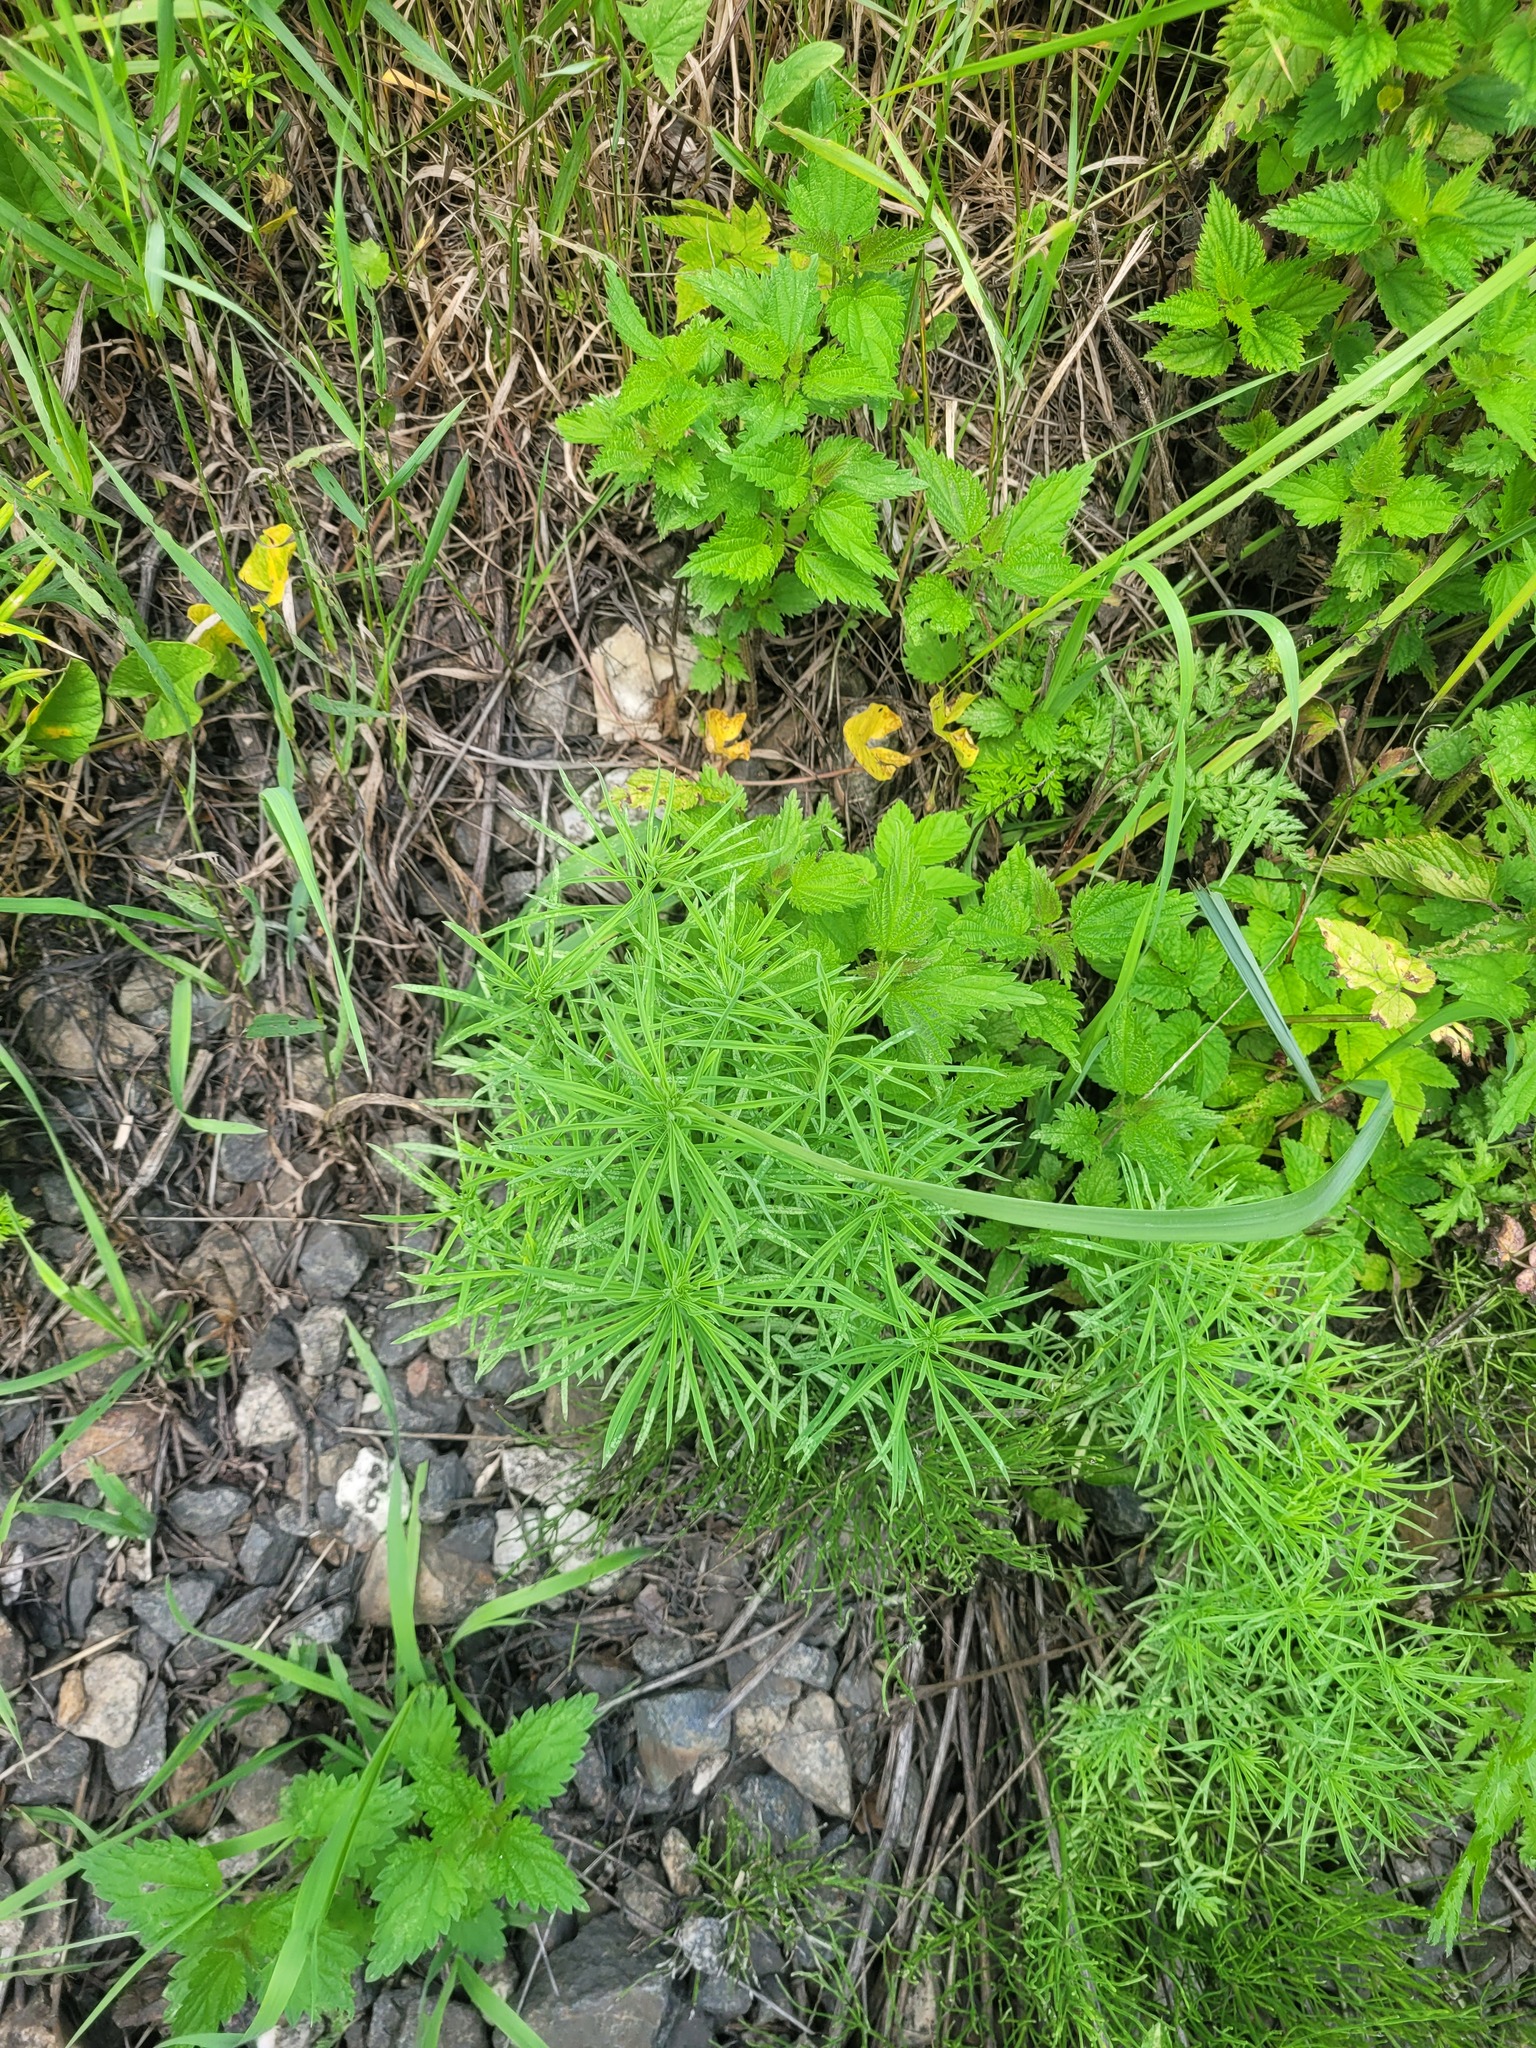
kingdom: Plantae
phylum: Tracheophyta
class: Magnoliopsida
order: Lamiales
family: Plantaginaceae
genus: Linaria
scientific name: Linaria vulgaris
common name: Butter and eggs
